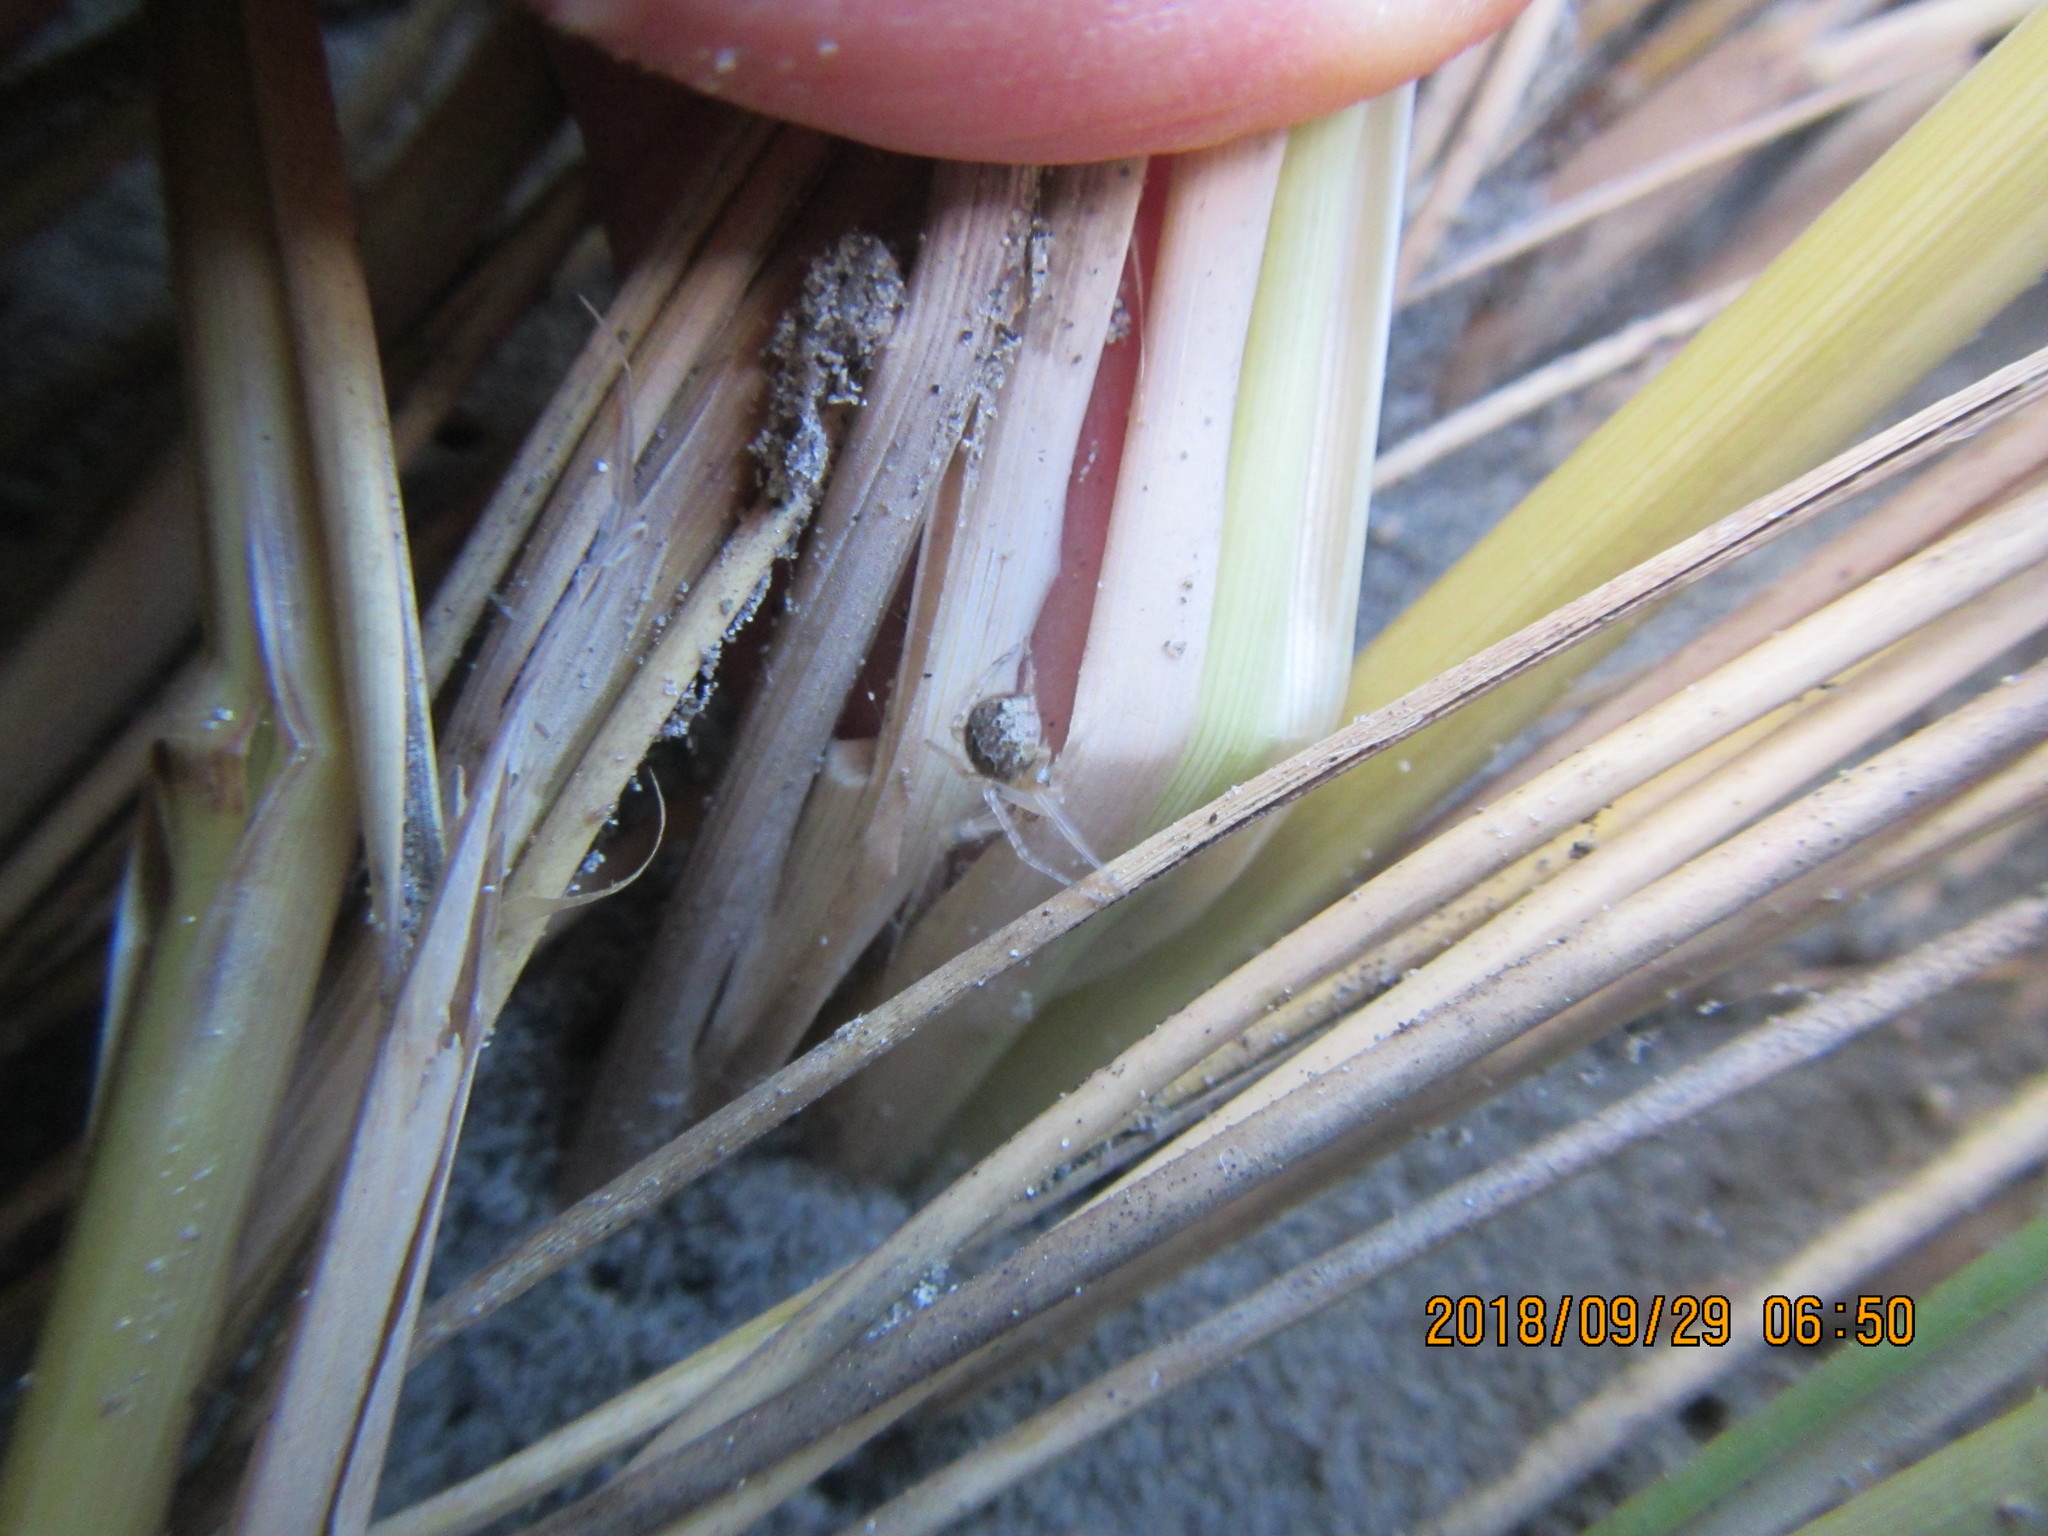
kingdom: Animalia
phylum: Arthropoda
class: Arachnida
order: Araneae
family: Theridiidae
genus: Cryptachaea
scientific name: Cryptachaea veruculata
